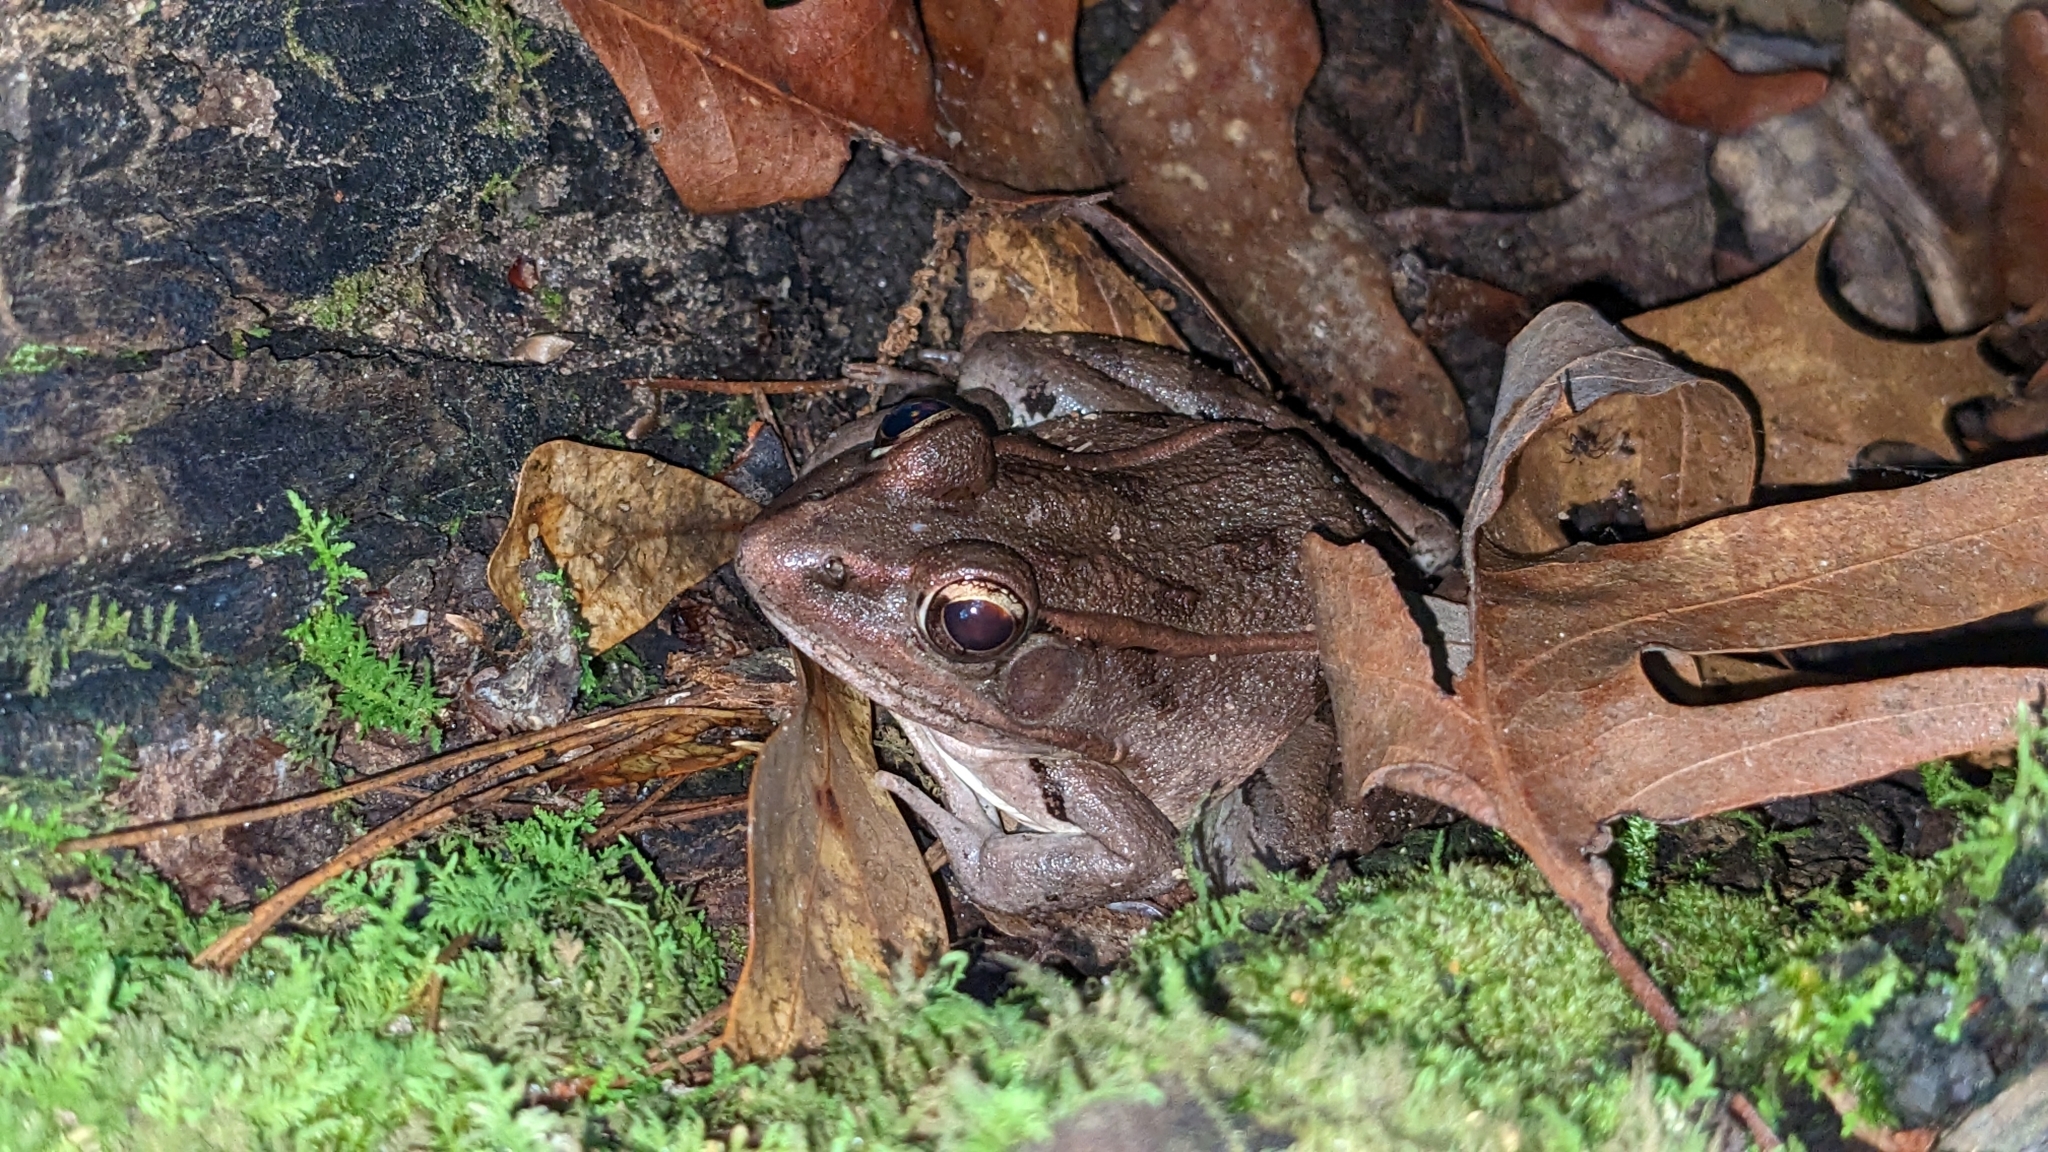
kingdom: Animalia
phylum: Chordata
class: Amphibia
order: Anura
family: Ranidae
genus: Lithobates
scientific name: Lithobates sphenocephalus
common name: Southern leopard frog
